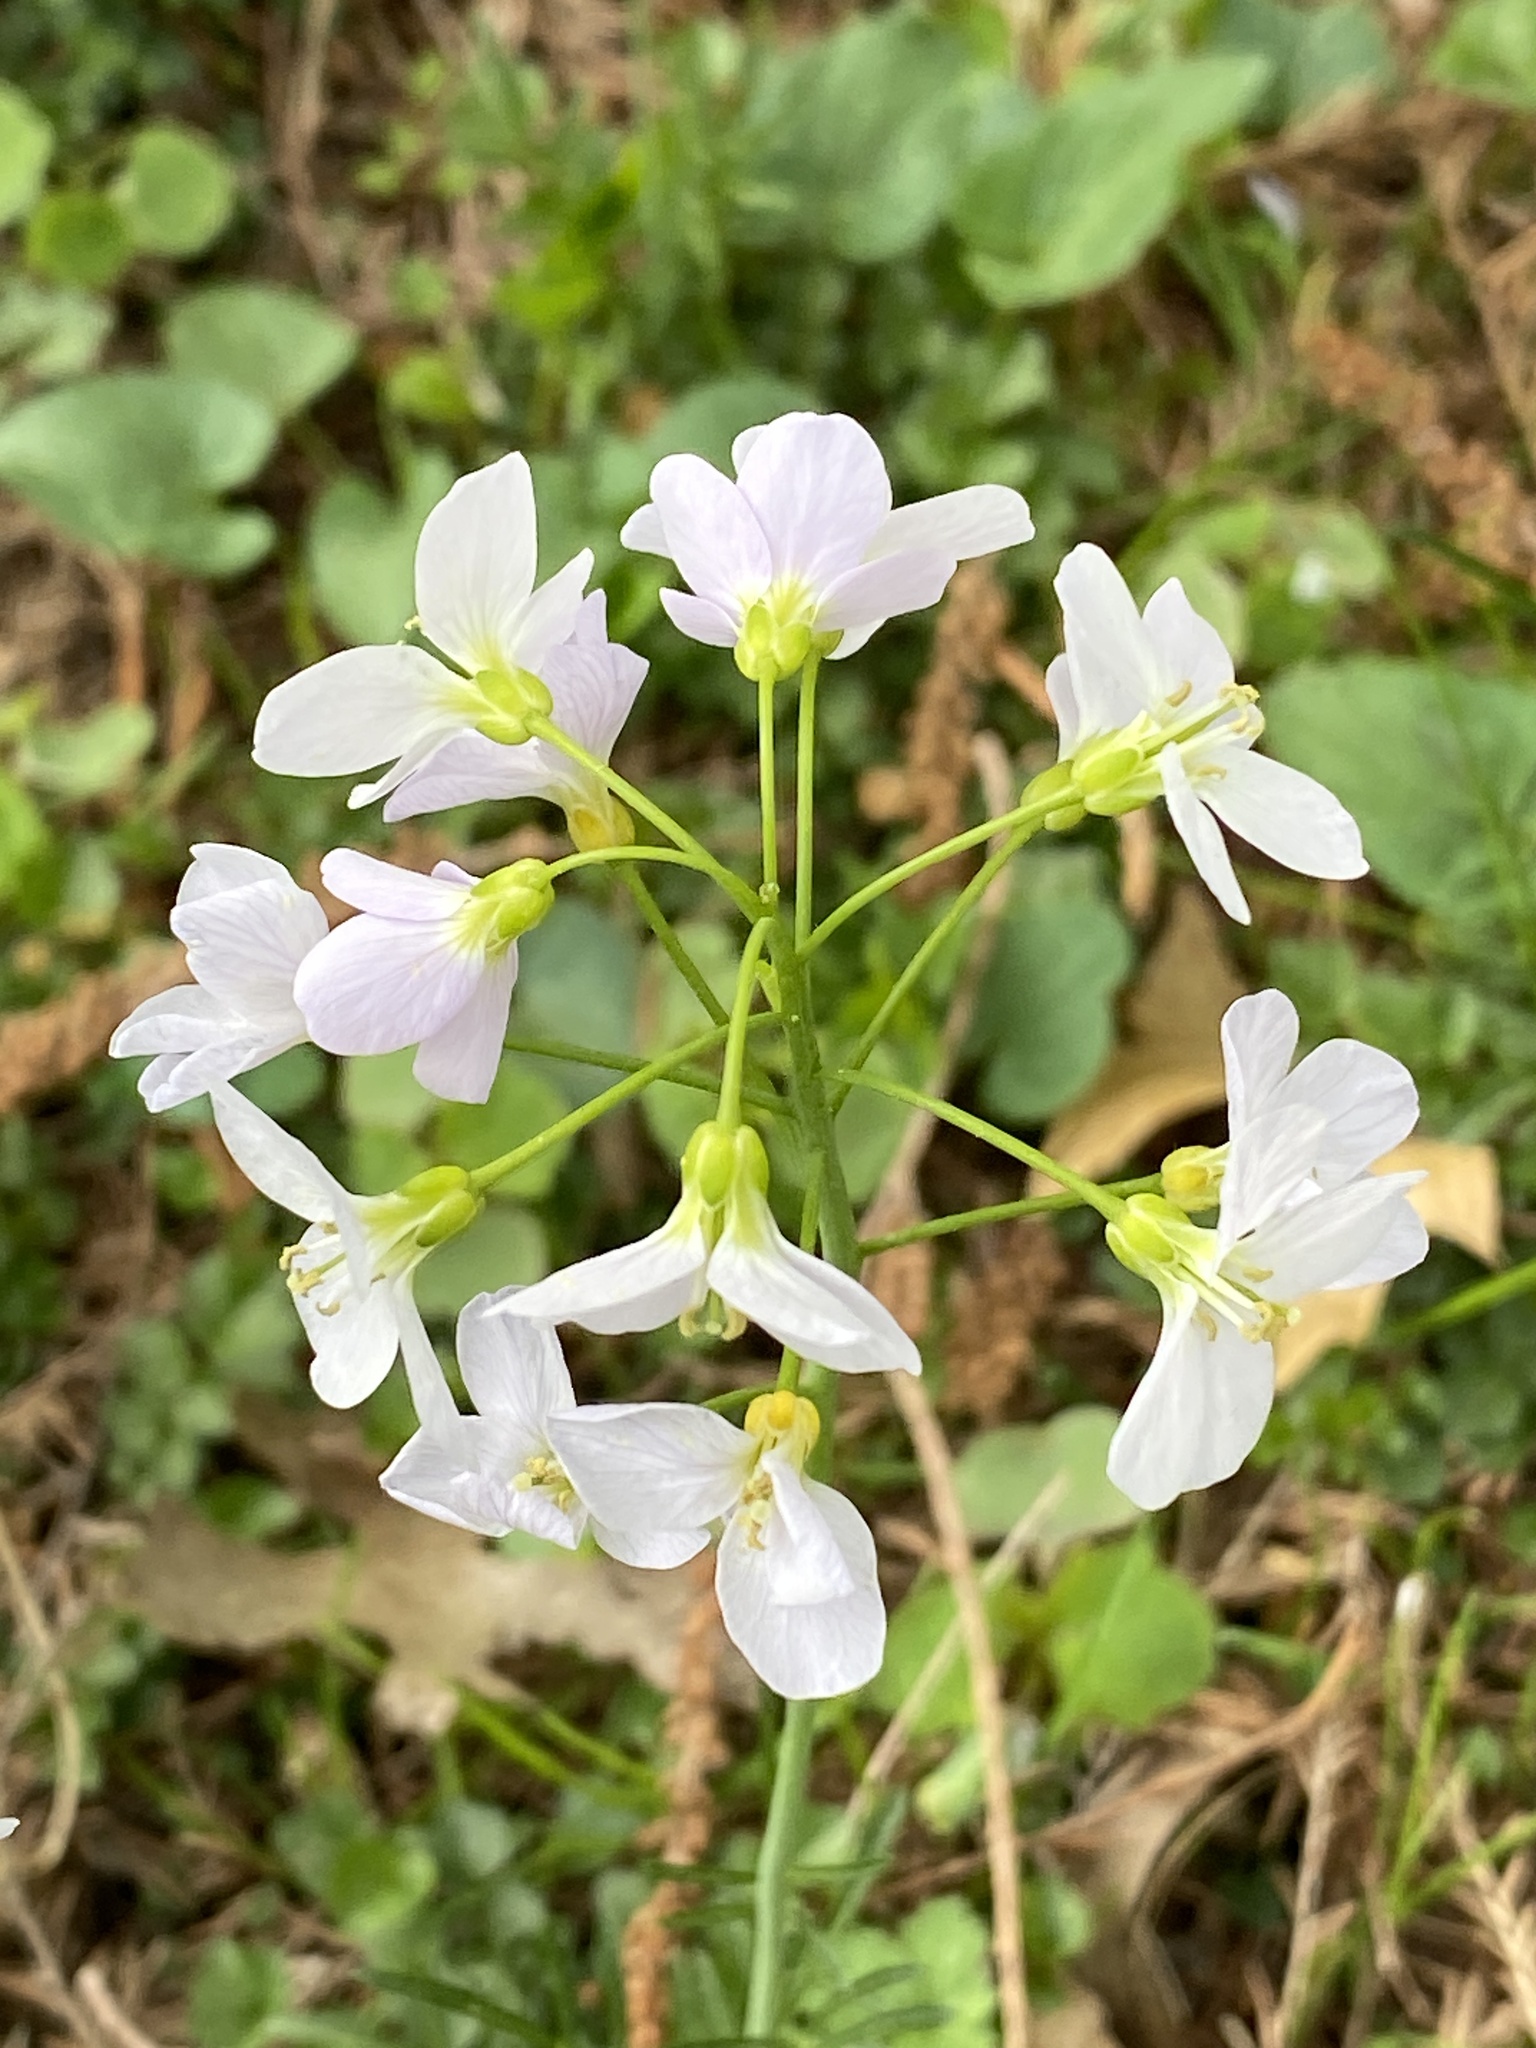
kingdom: Plantae
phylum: Tracheophyta
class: Magnoliopsida
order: Brassicales
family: Brassicaceae
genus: Cardamine
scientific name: Cardamine pratensis
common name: Cuckoo flower
